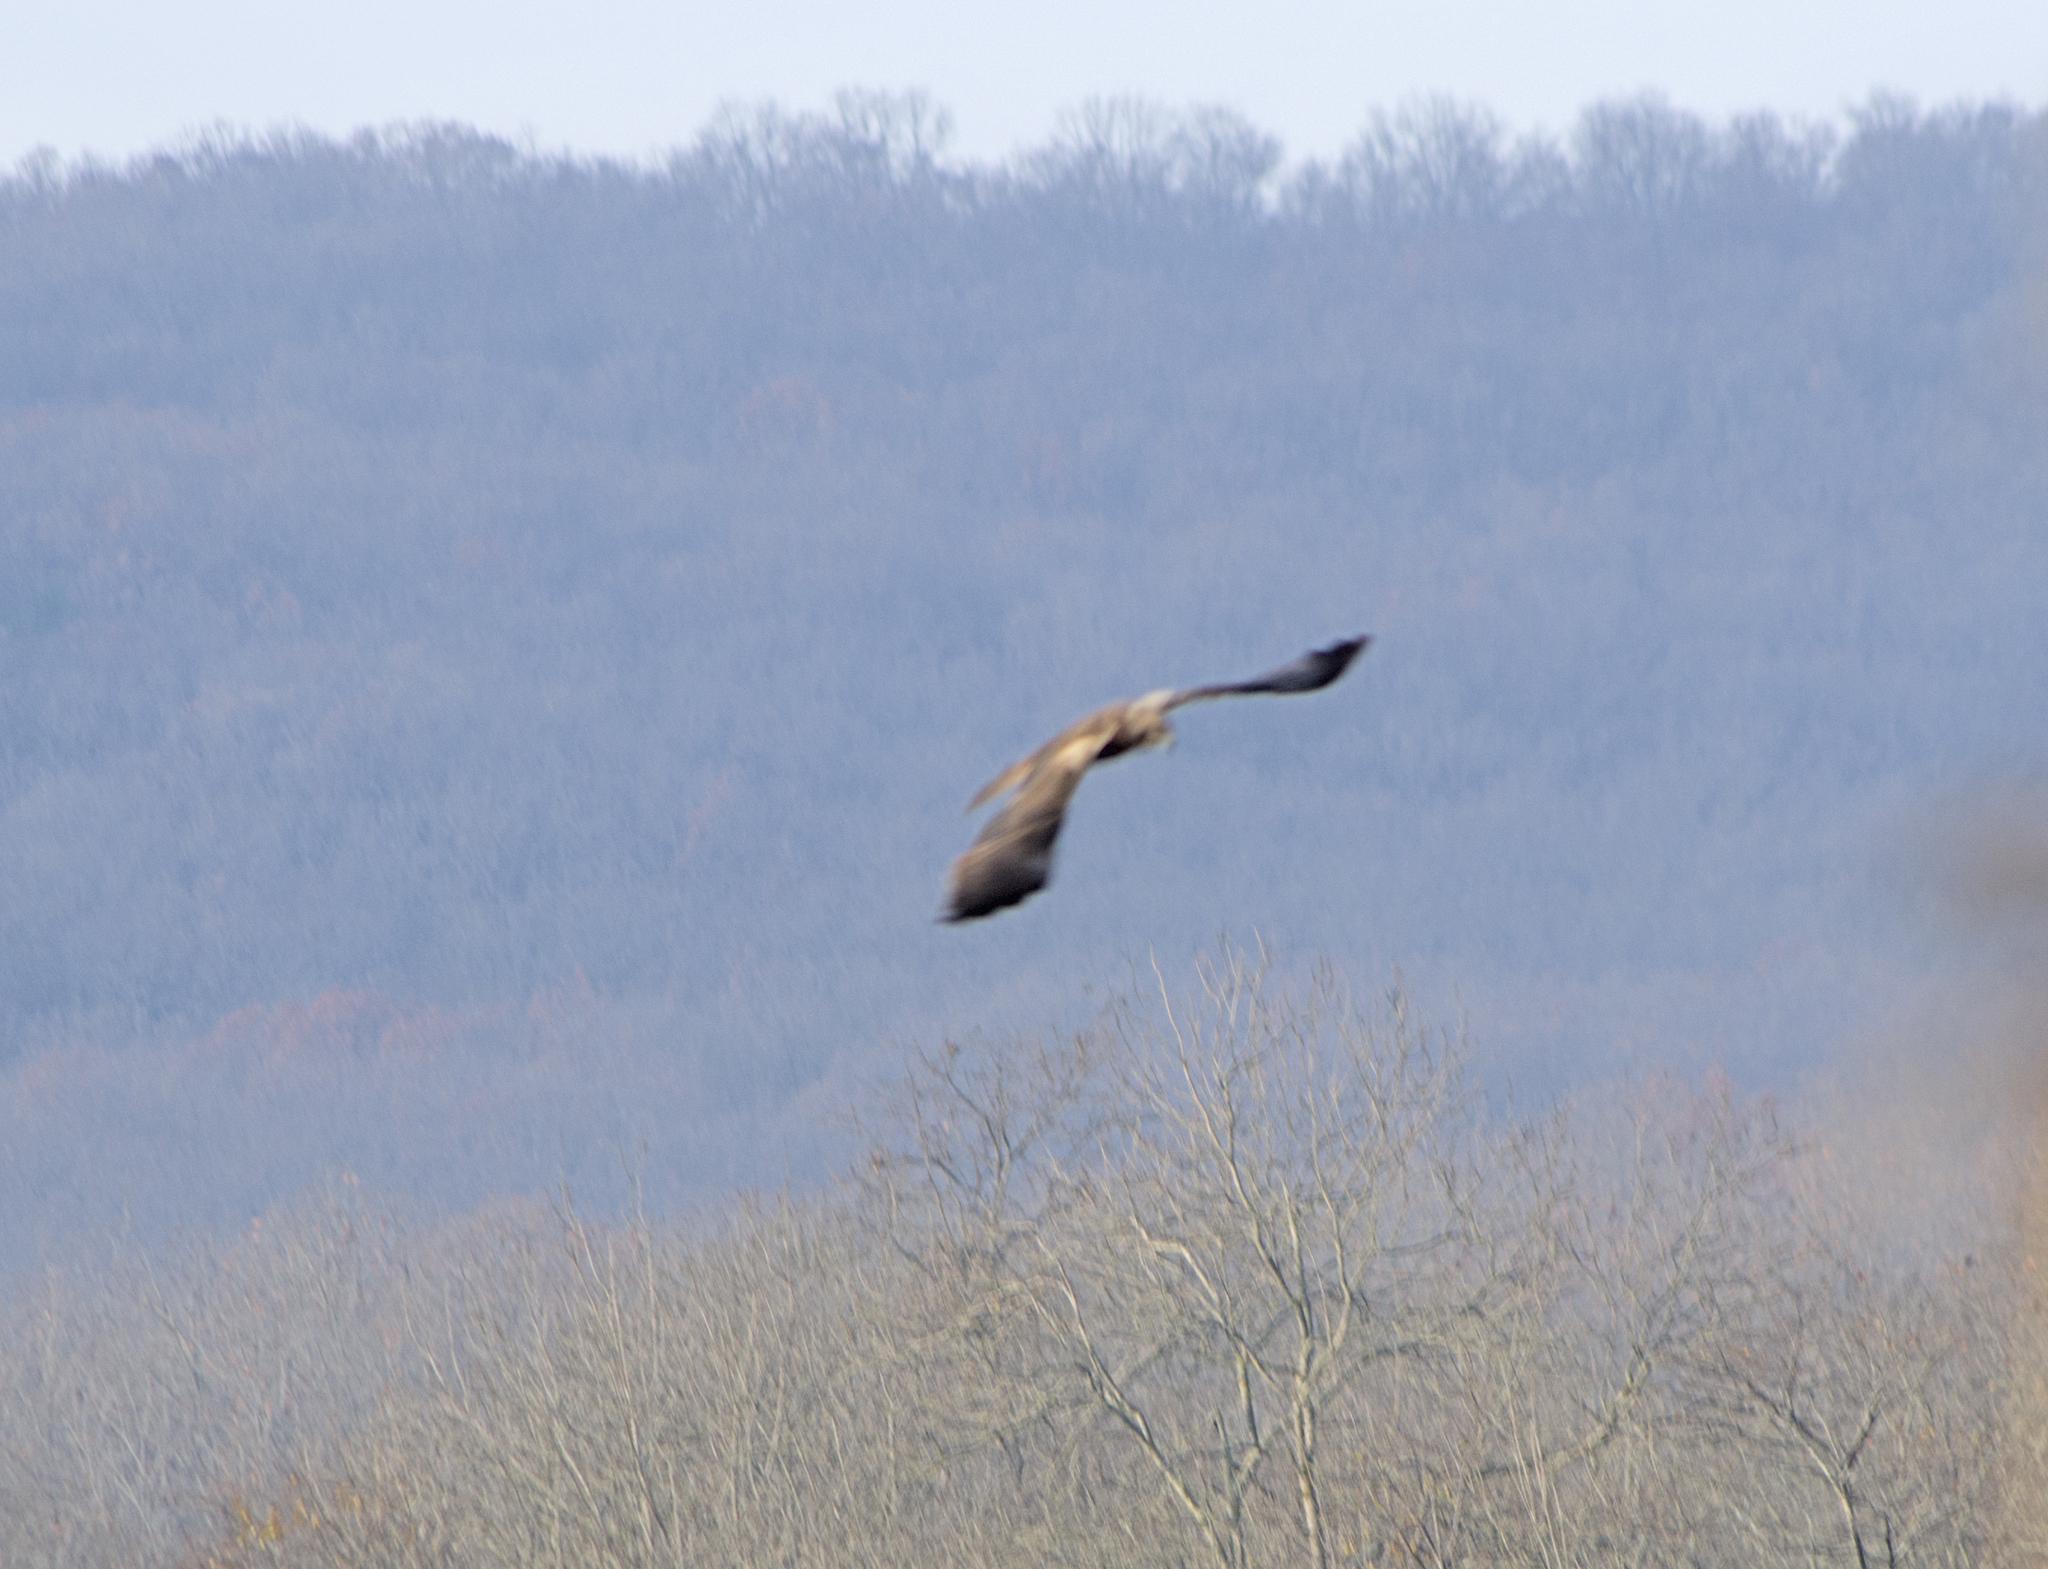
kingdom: Animalia
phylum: Chordata
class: Aves
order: Accipitriformes
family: Accipitridae
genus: Circus
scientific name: Circus aeruginosus
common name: Western marsh harrier
